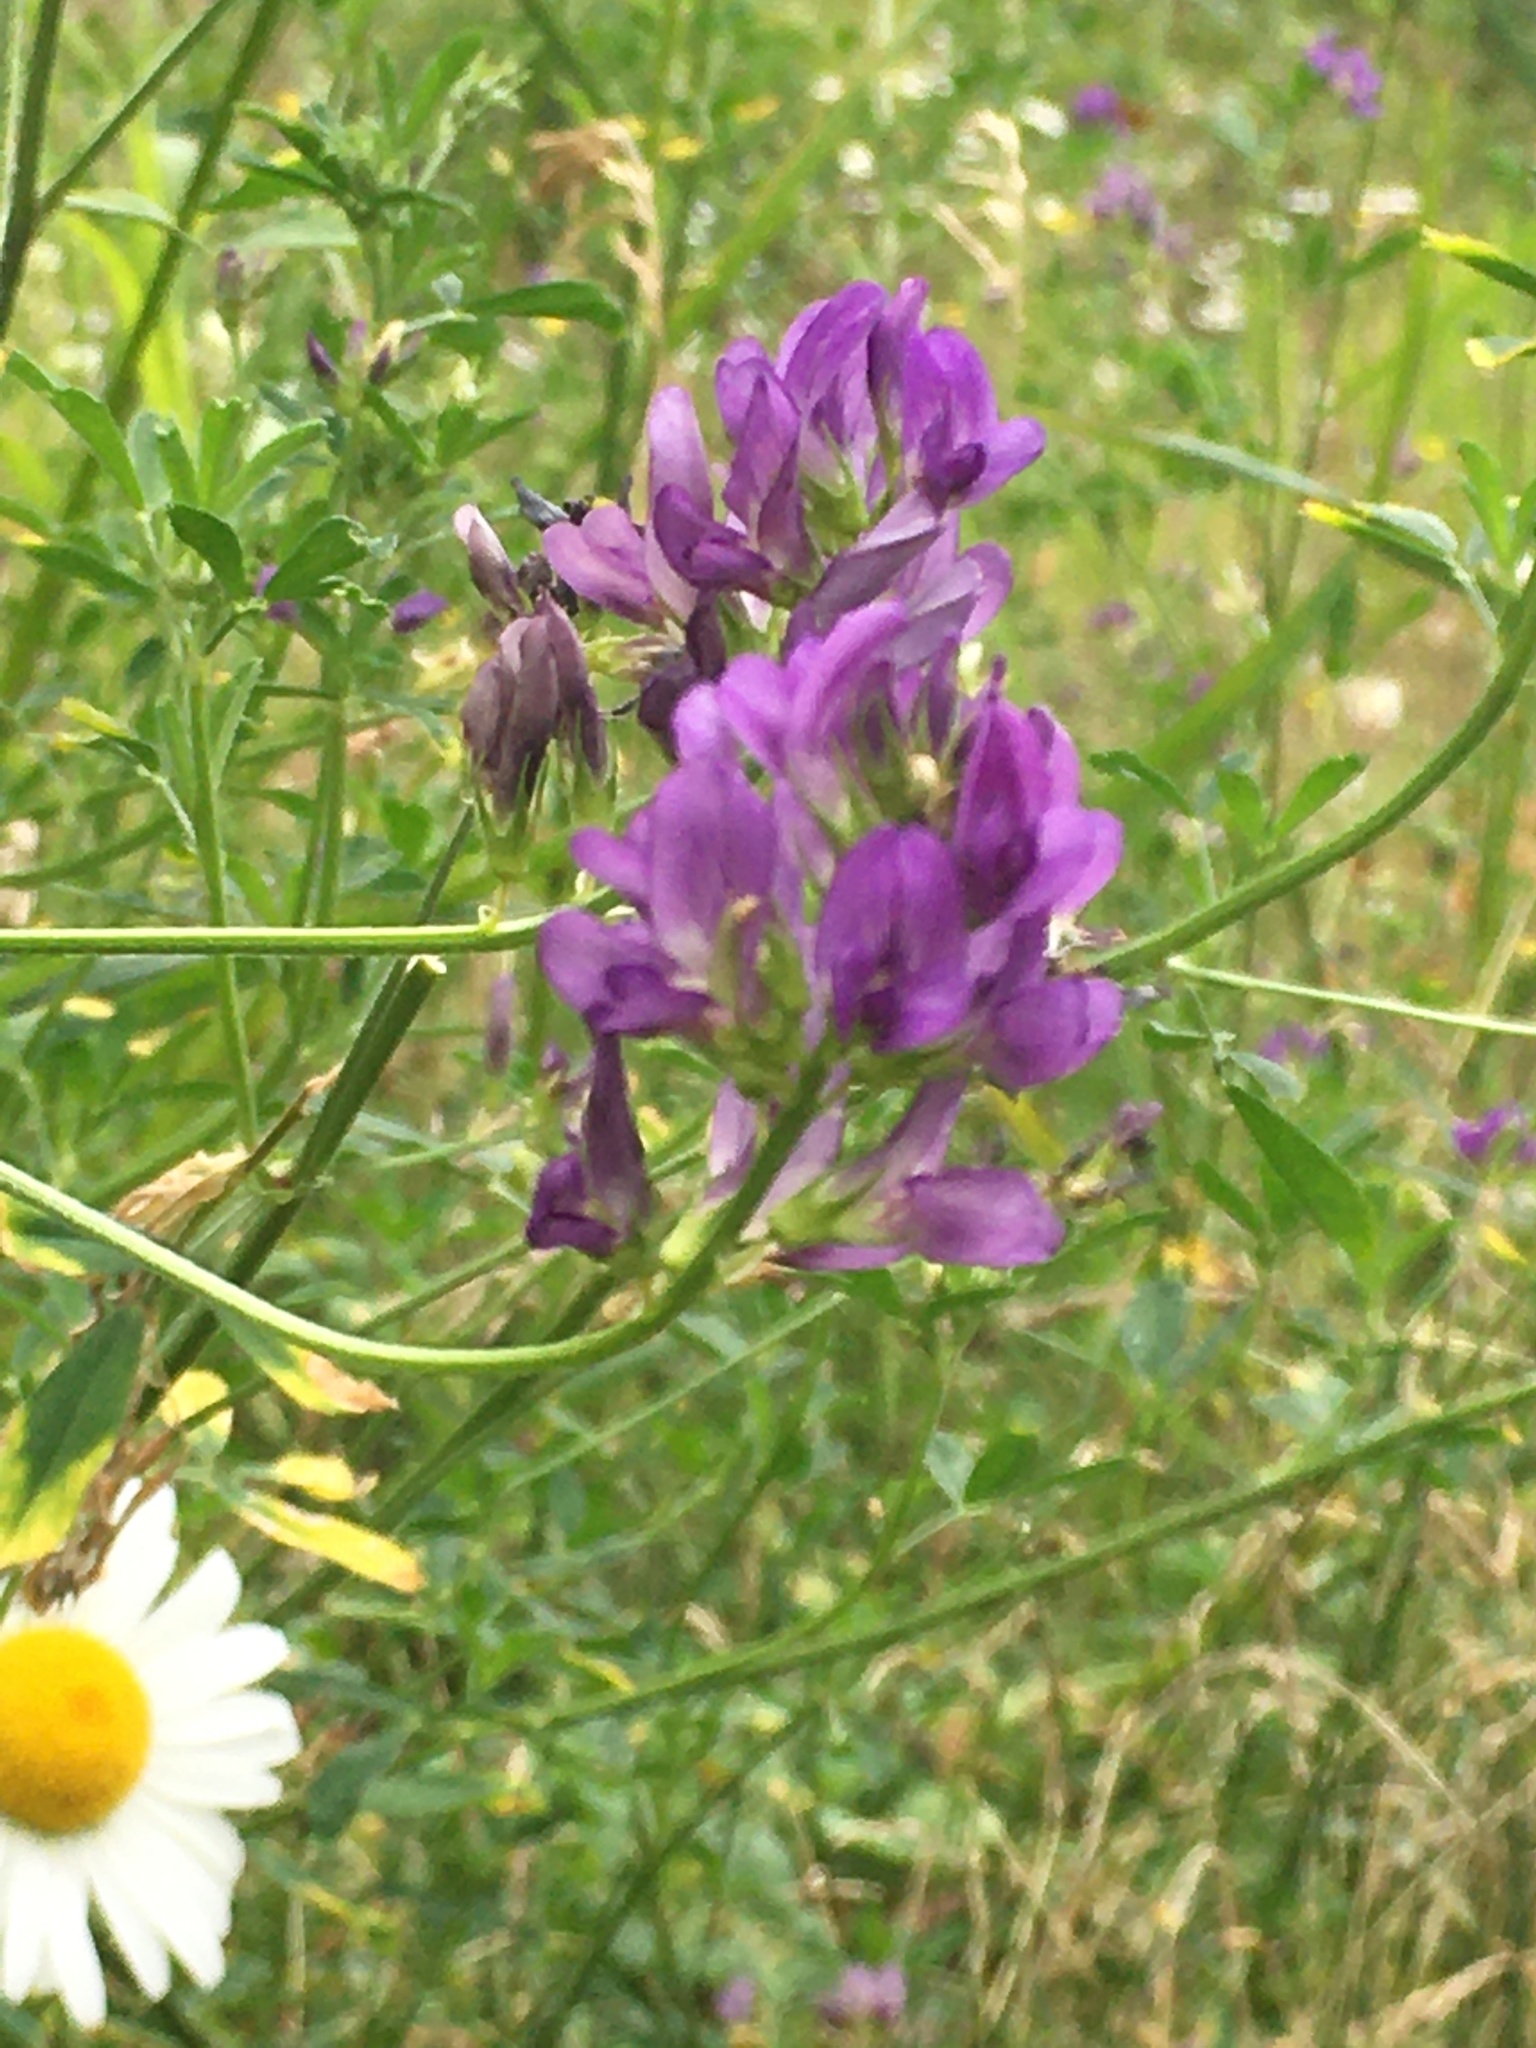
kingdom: Plantae
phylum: Tracheophyta
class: Magnoliopsida
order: Fabales
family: Fabaceae
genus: Medicago
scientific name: Medicago sativa
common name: Alfalfa
